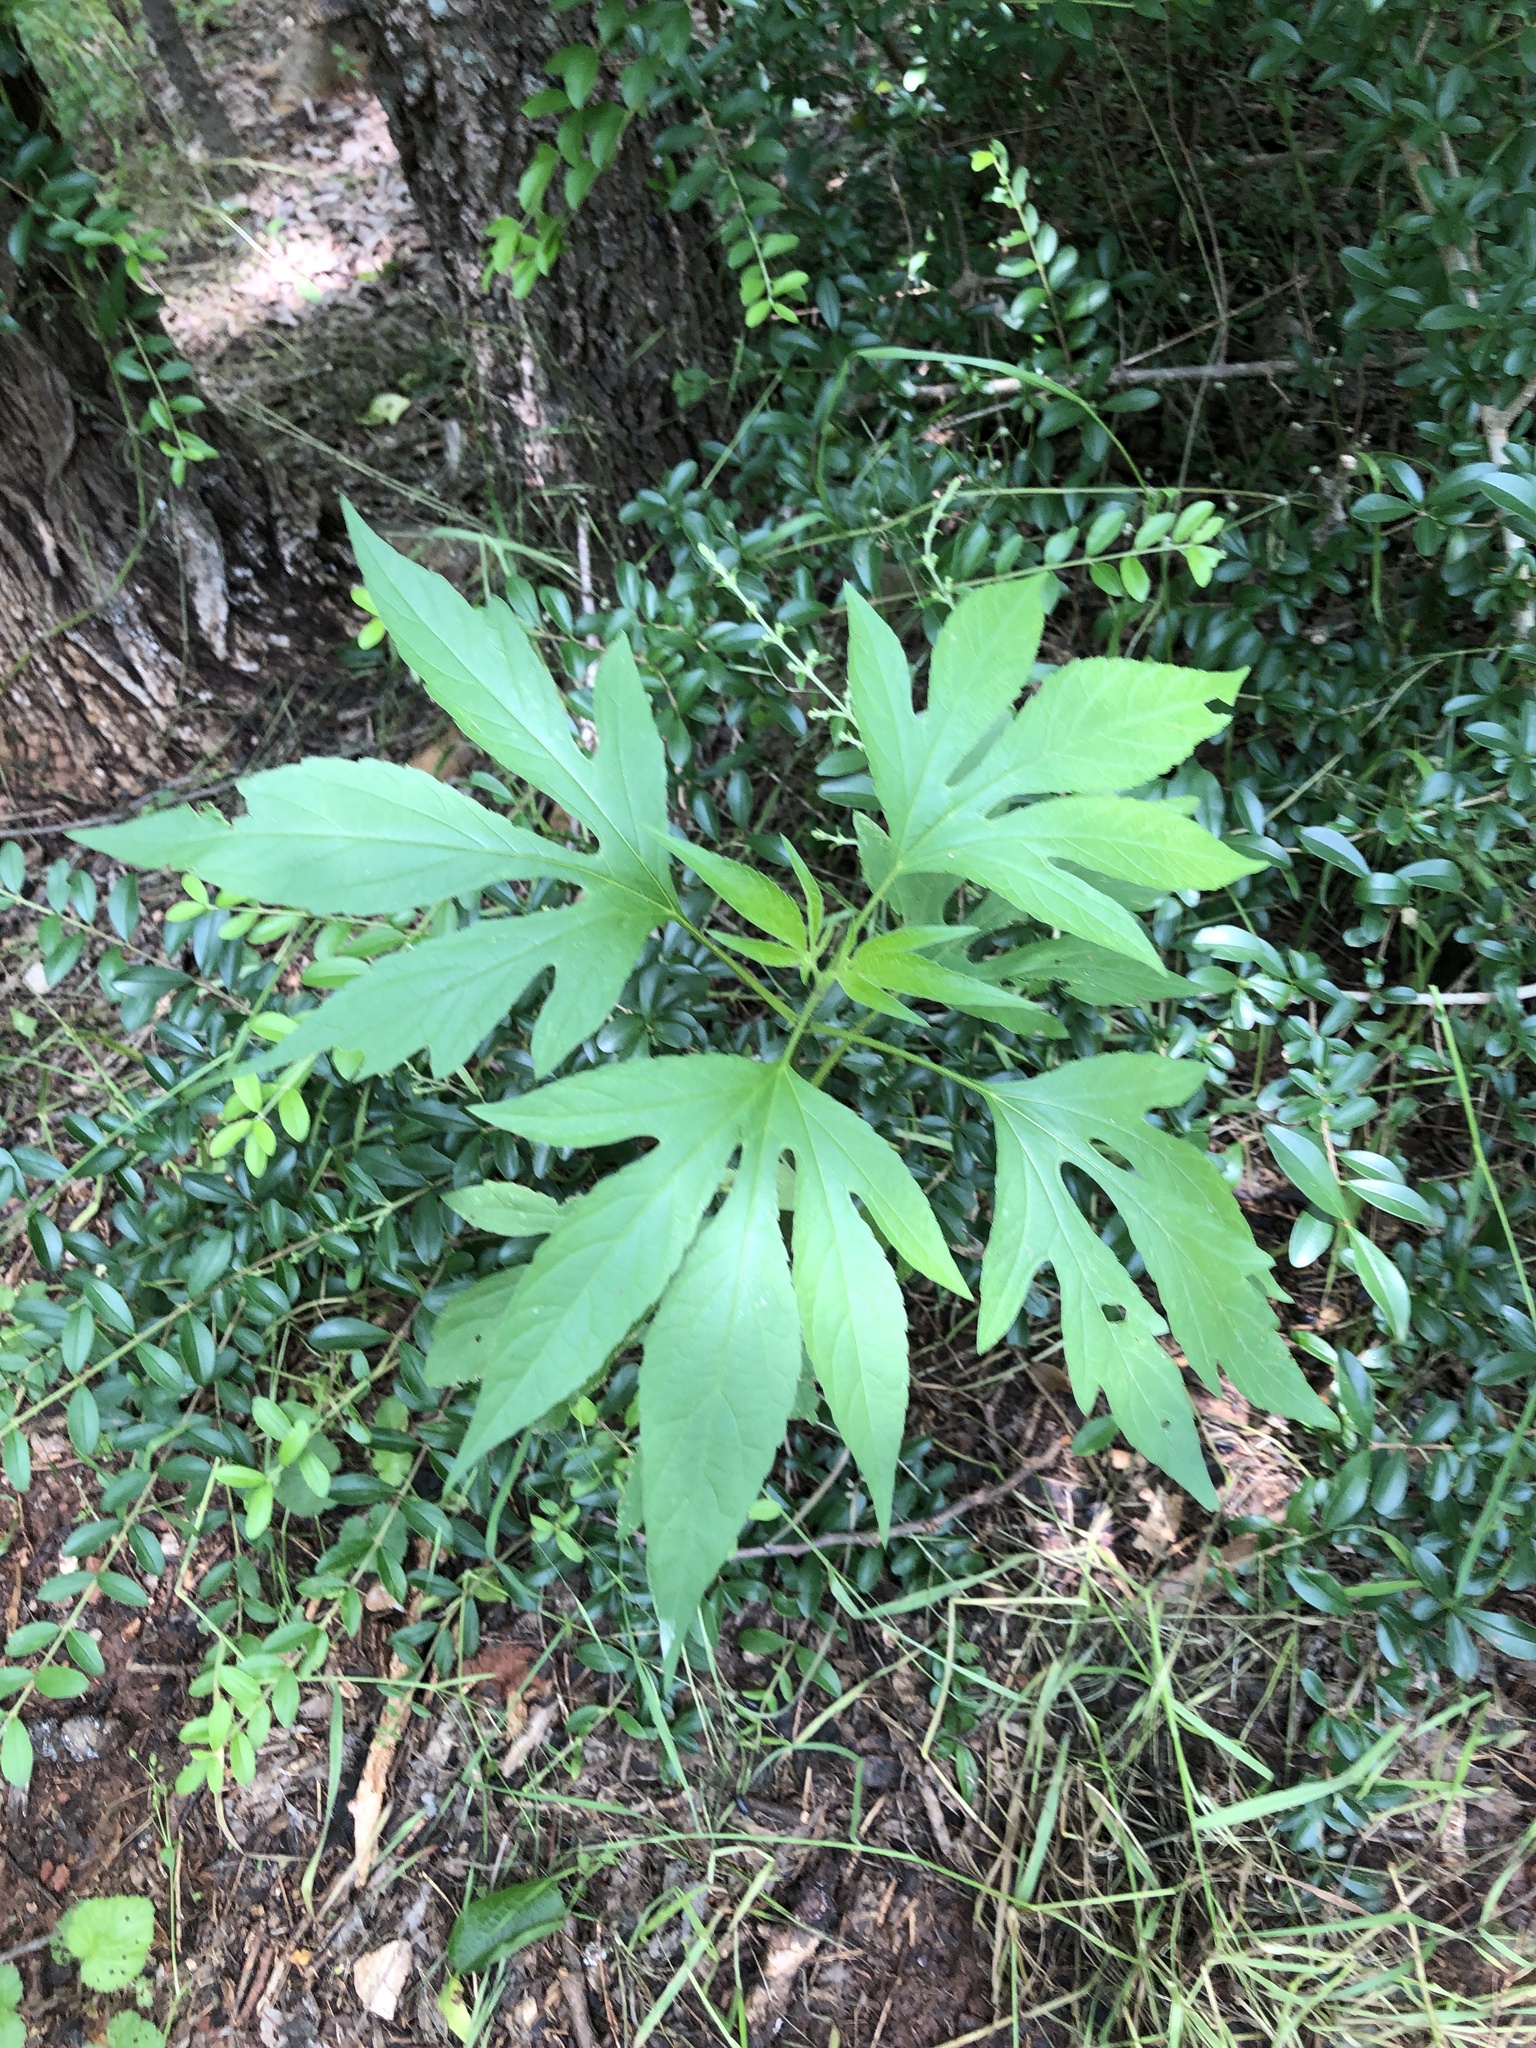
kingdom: Plantae
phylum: Tracheophyta
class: Magnoliopsida
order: Asterales
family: Asteraceae
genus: Ambrosia
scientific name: Ambrosia trifida
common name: Giant ragweed
